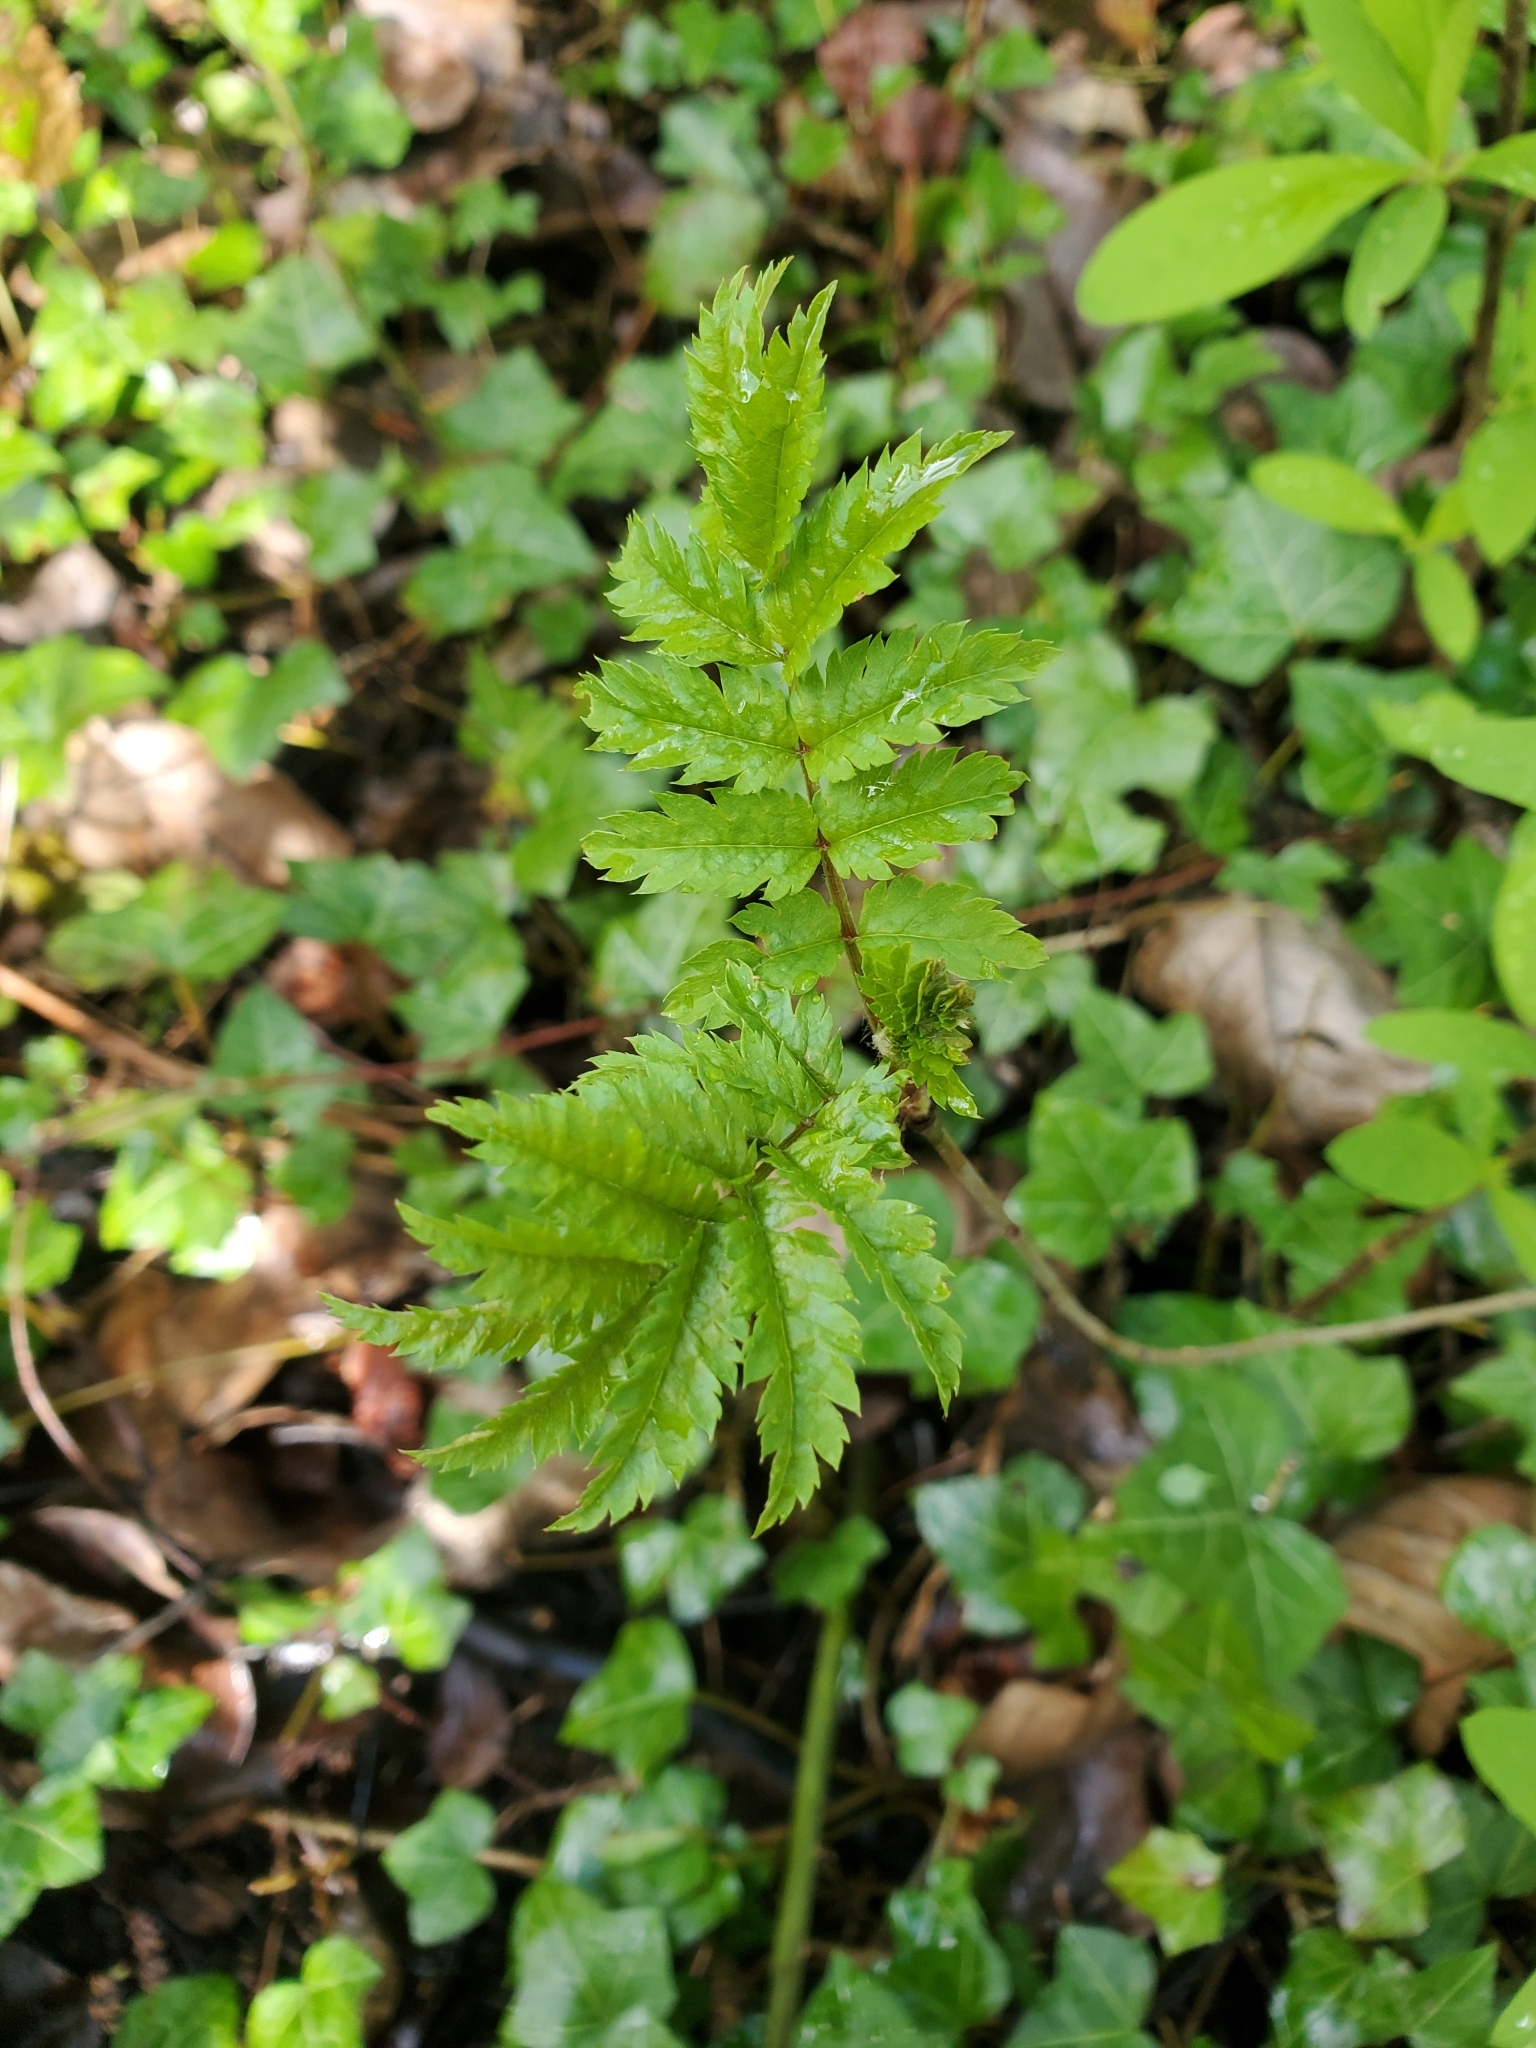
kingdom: Plantae
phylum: Tracheophyta
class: Magnoliopsida
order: Rosales
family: Rosaceae
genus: Sorbus
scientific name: Sorbus aucuparia
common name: Rowan
